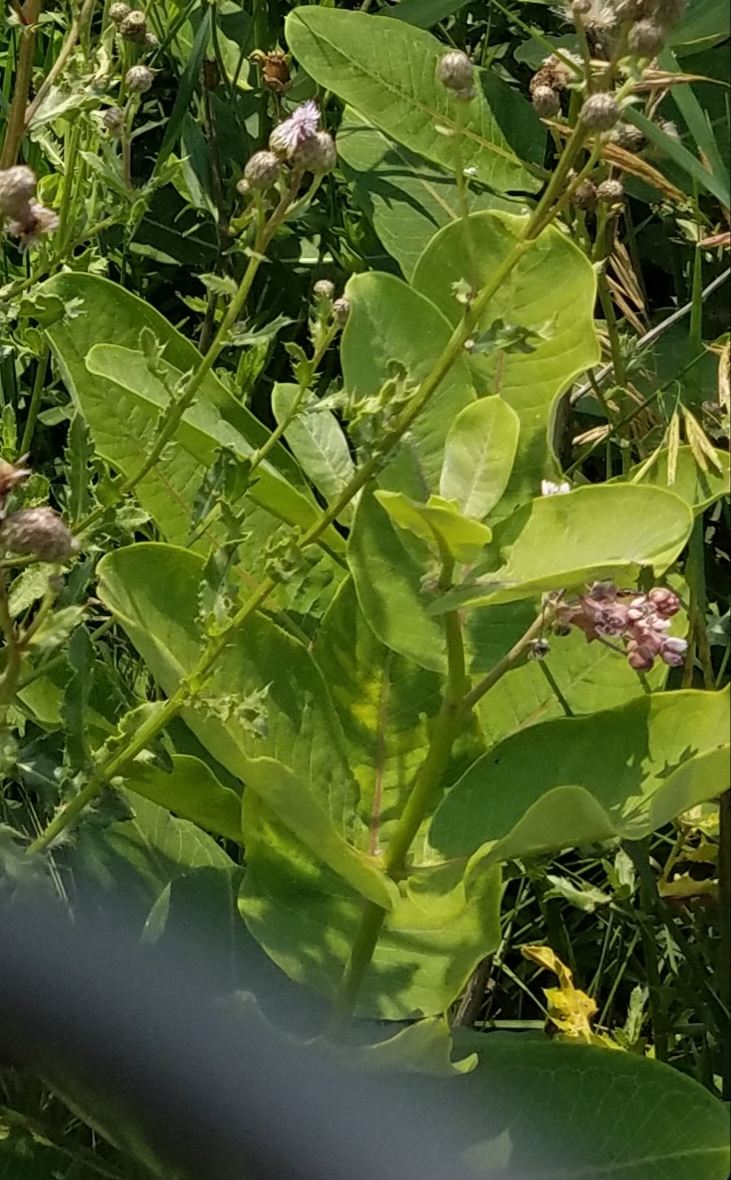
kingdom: Plantae
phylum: Tracheophyta
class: Magnoliopsida
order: Gentianales
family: Apocynaceae
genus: Asclepias
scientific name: Asclepias syriaca
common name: Common milkweed
